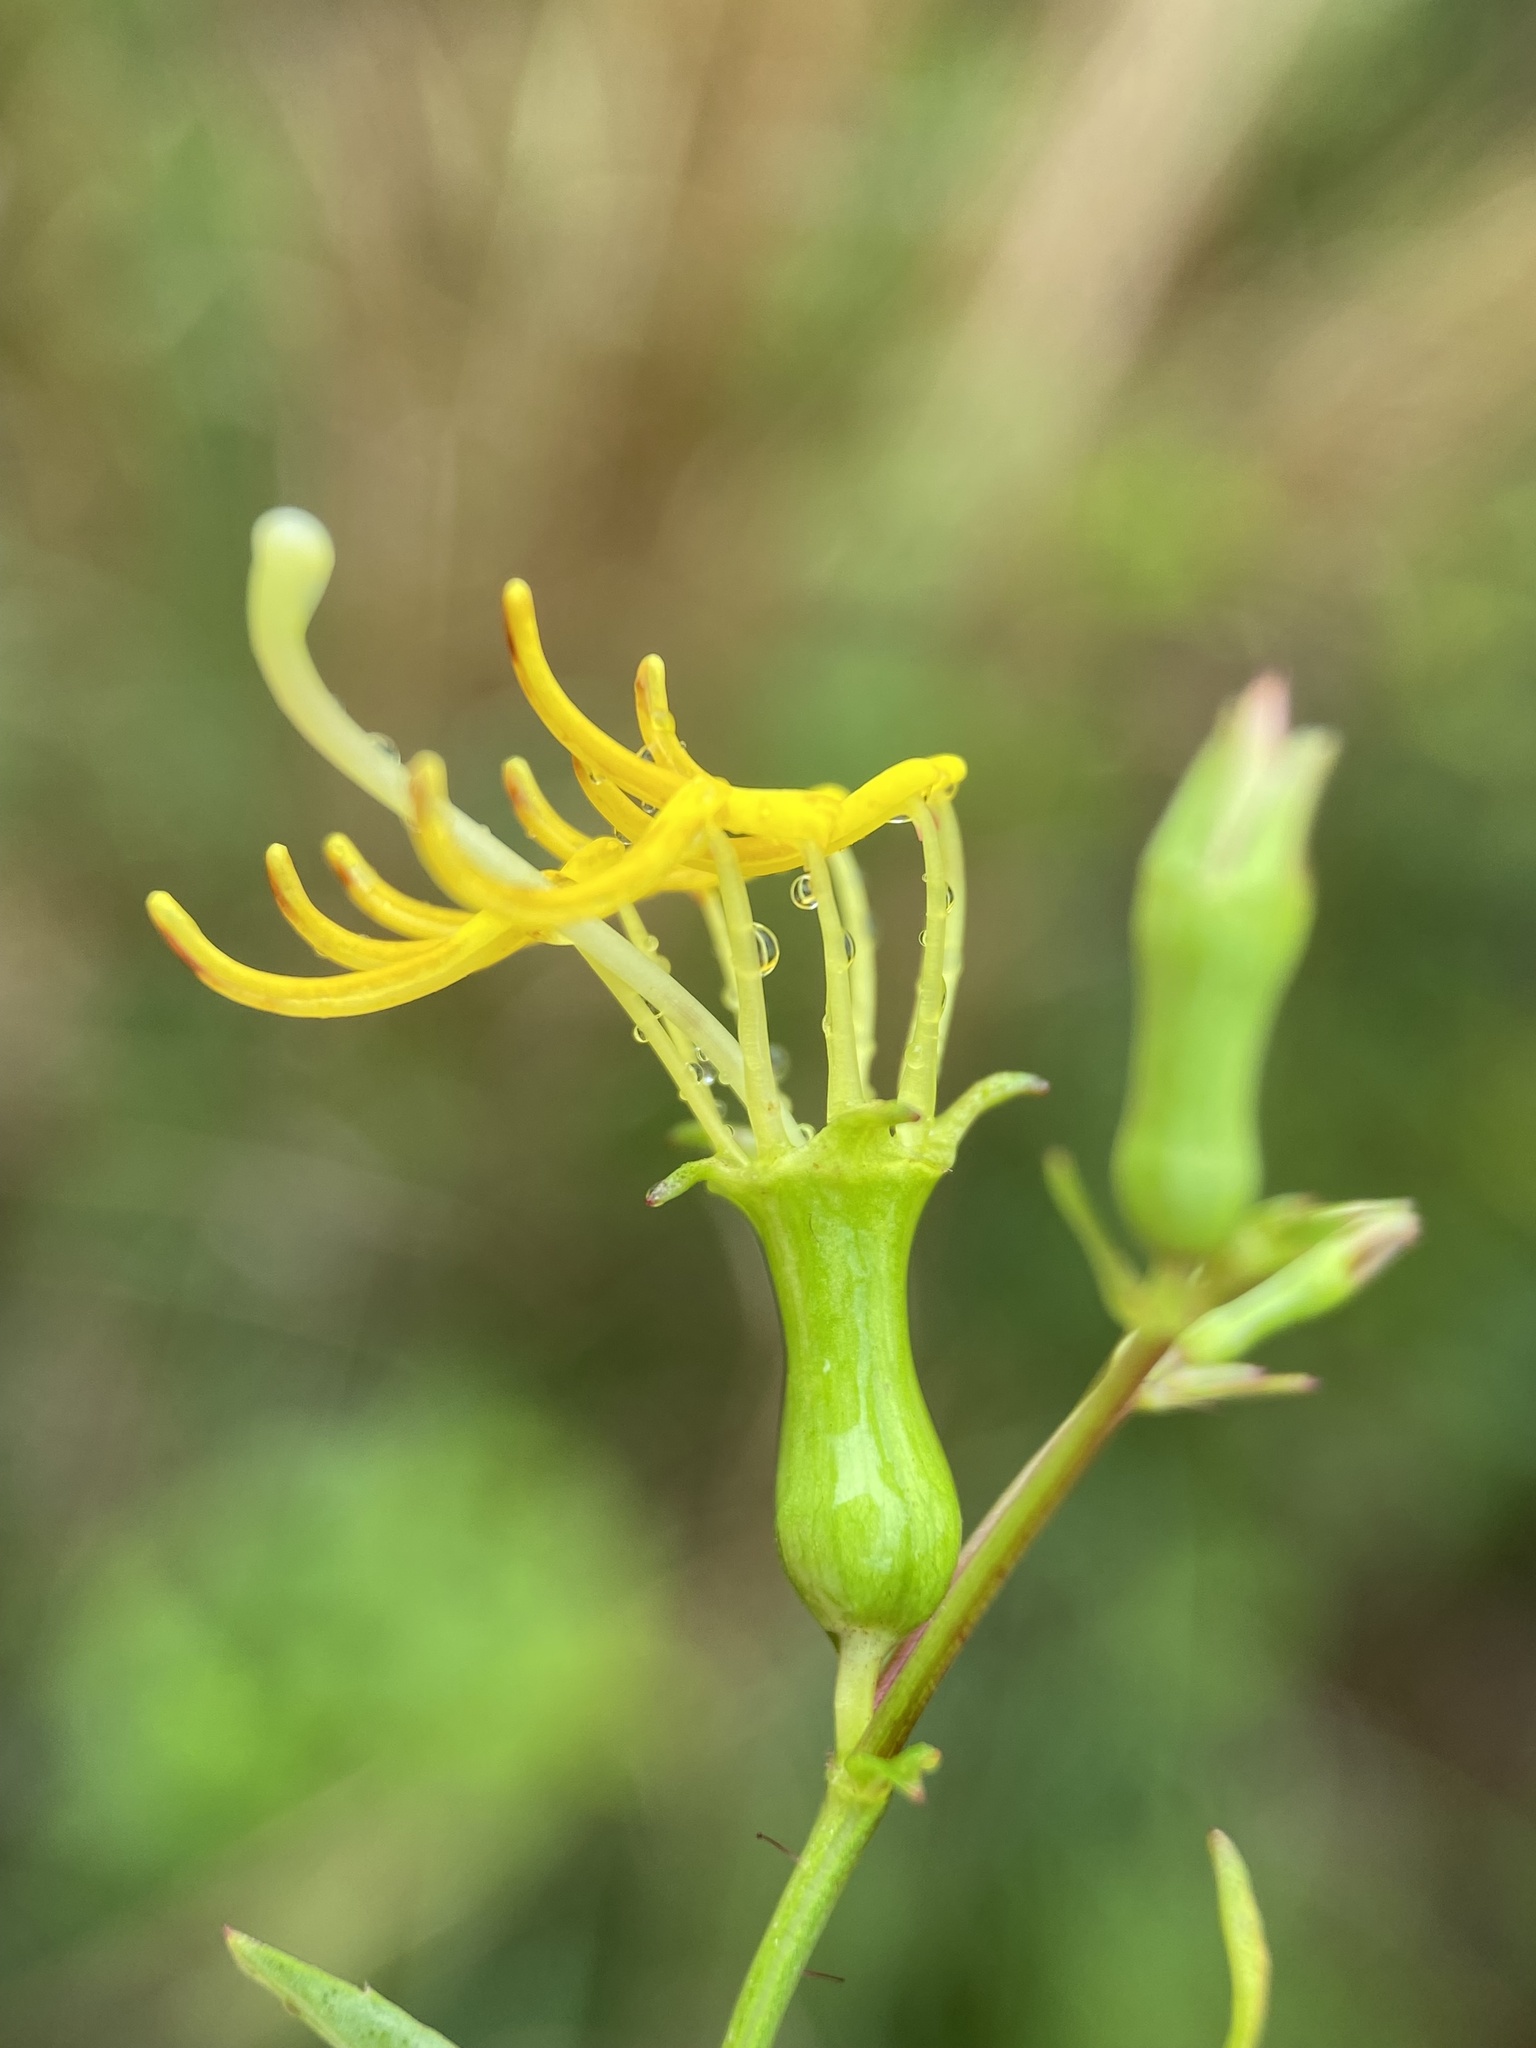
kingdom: Plantae
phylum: Tracheophyta
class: Magnoliopsida
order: Myrtales
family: Melastomataceae
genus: Rhexia
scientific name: Rhexia mariana
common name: Dull meadow-pitcher
